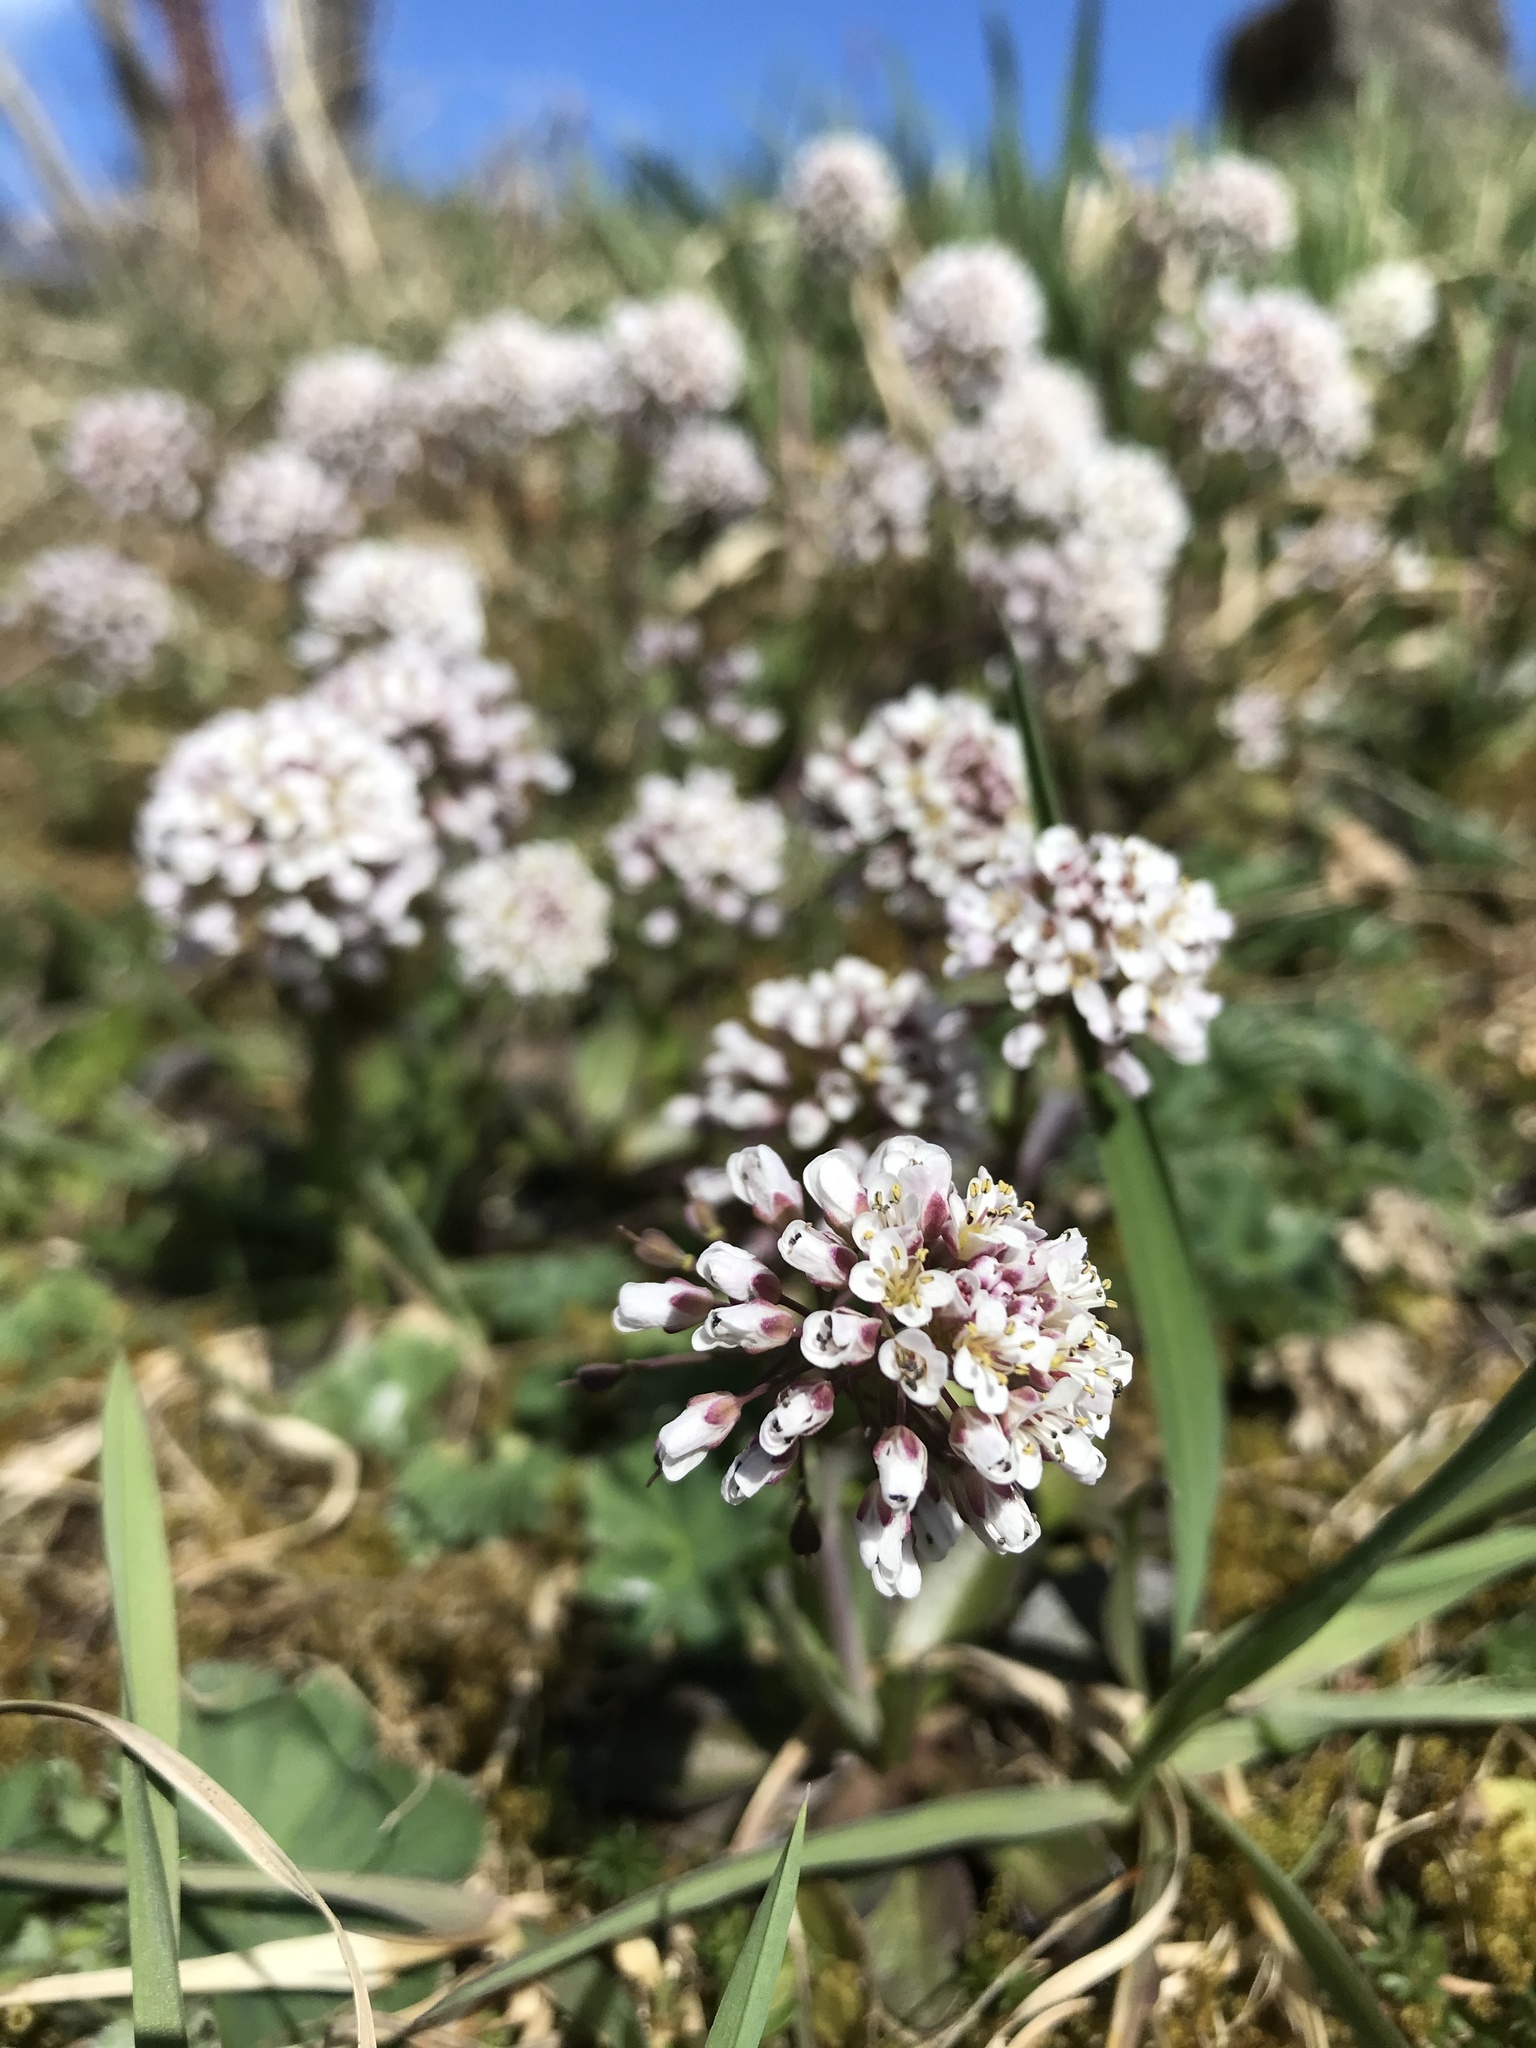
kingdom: Plantae
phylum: Tracheophyta
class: Magnoliopsida
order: Brassicales
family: Brassicaceae
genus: Noccaea
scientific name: Noccaea caerulescens
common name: Alpine pennycress
